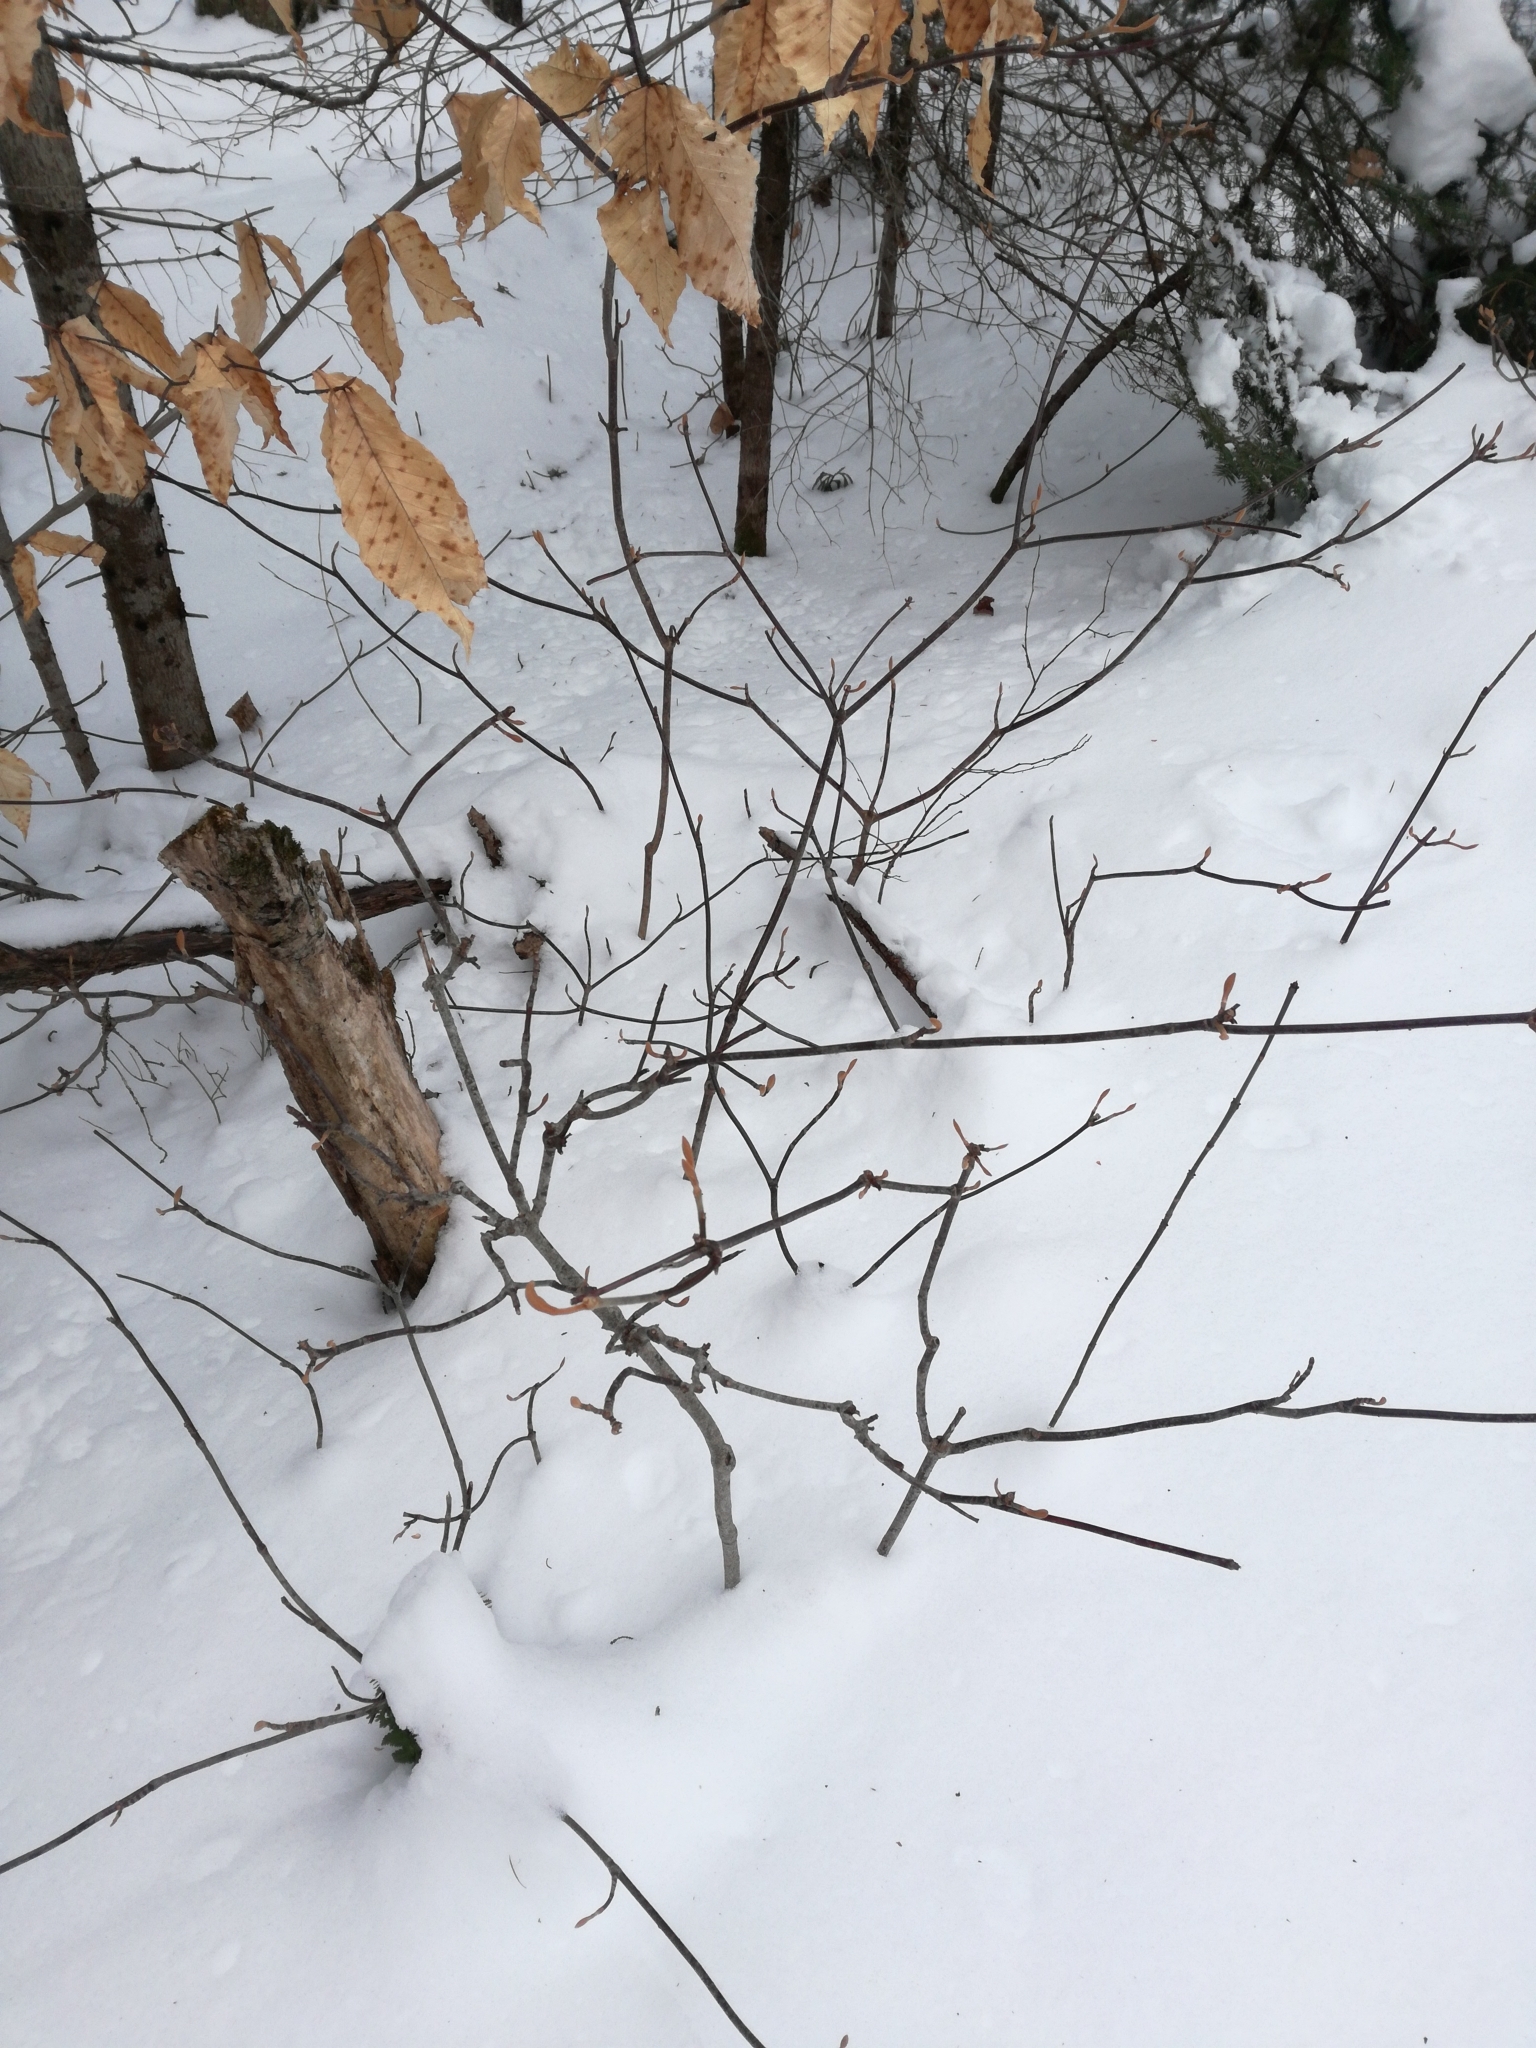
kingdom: Plantae
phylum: Tracheophyta
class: Magnoliopsida
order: Dipsacales
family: Viburnaceae
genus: Viburnum
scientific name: Viburnum lantanoides
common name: Hobblebush
